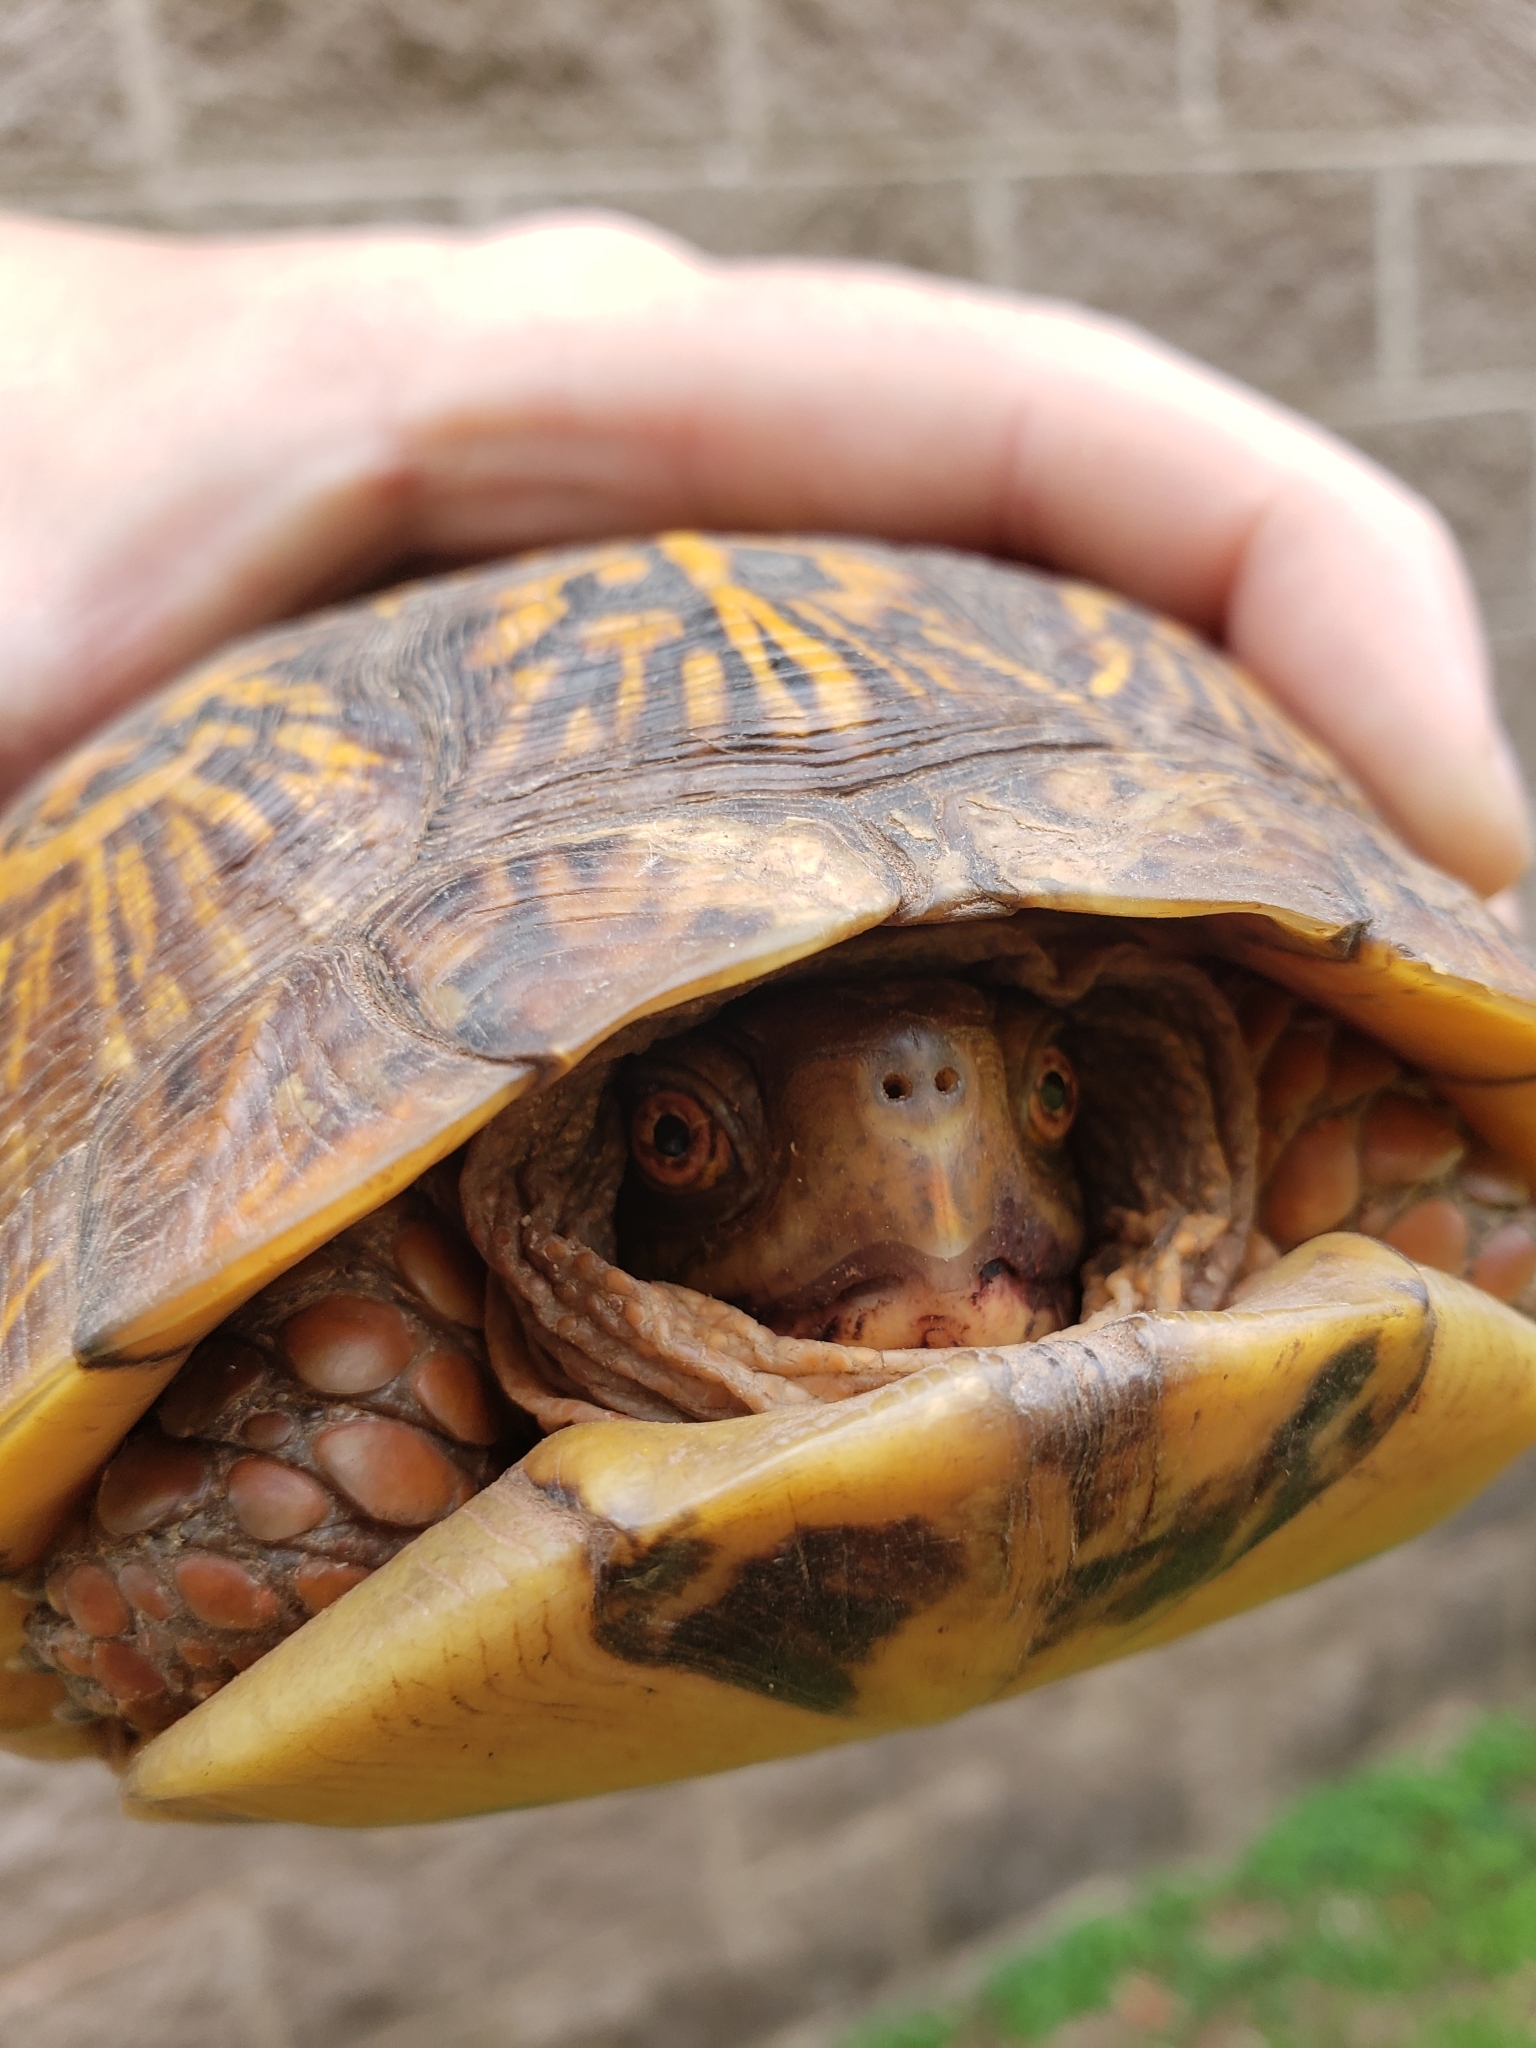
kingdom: Animalia
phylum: Chordata
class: Testudines
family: Emydidae
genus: Terrapene
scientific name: Terrapene carolina
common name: Common box turtle
